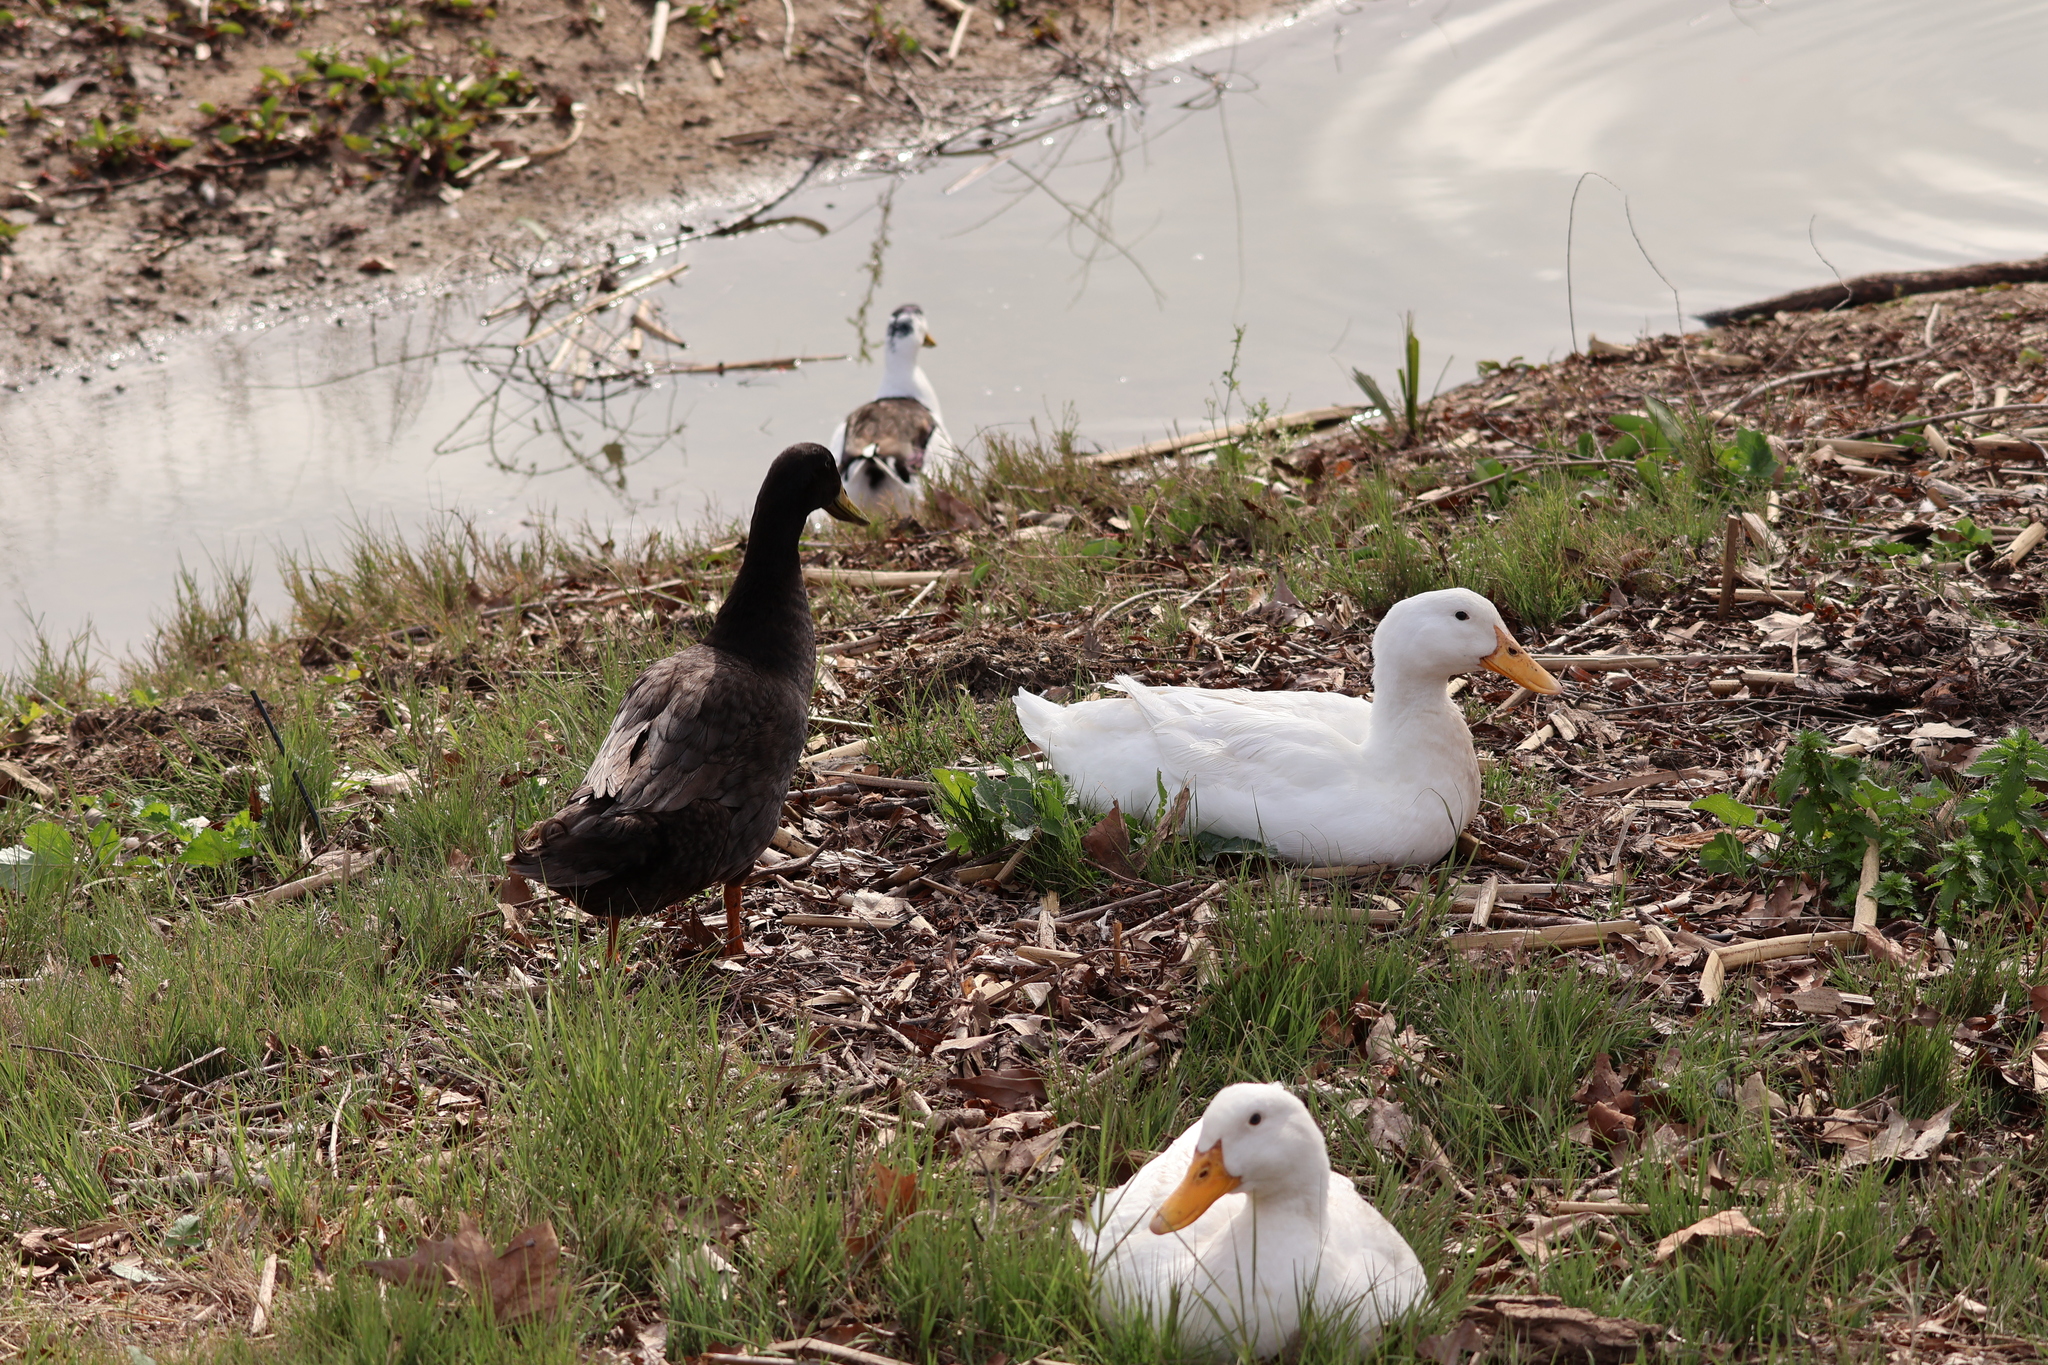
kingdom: Animalia
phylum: Chordata
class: Aves
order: Anseriformes
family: Anatidae
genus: Anas
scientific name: Anas platyrhynchos
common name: Mallard
